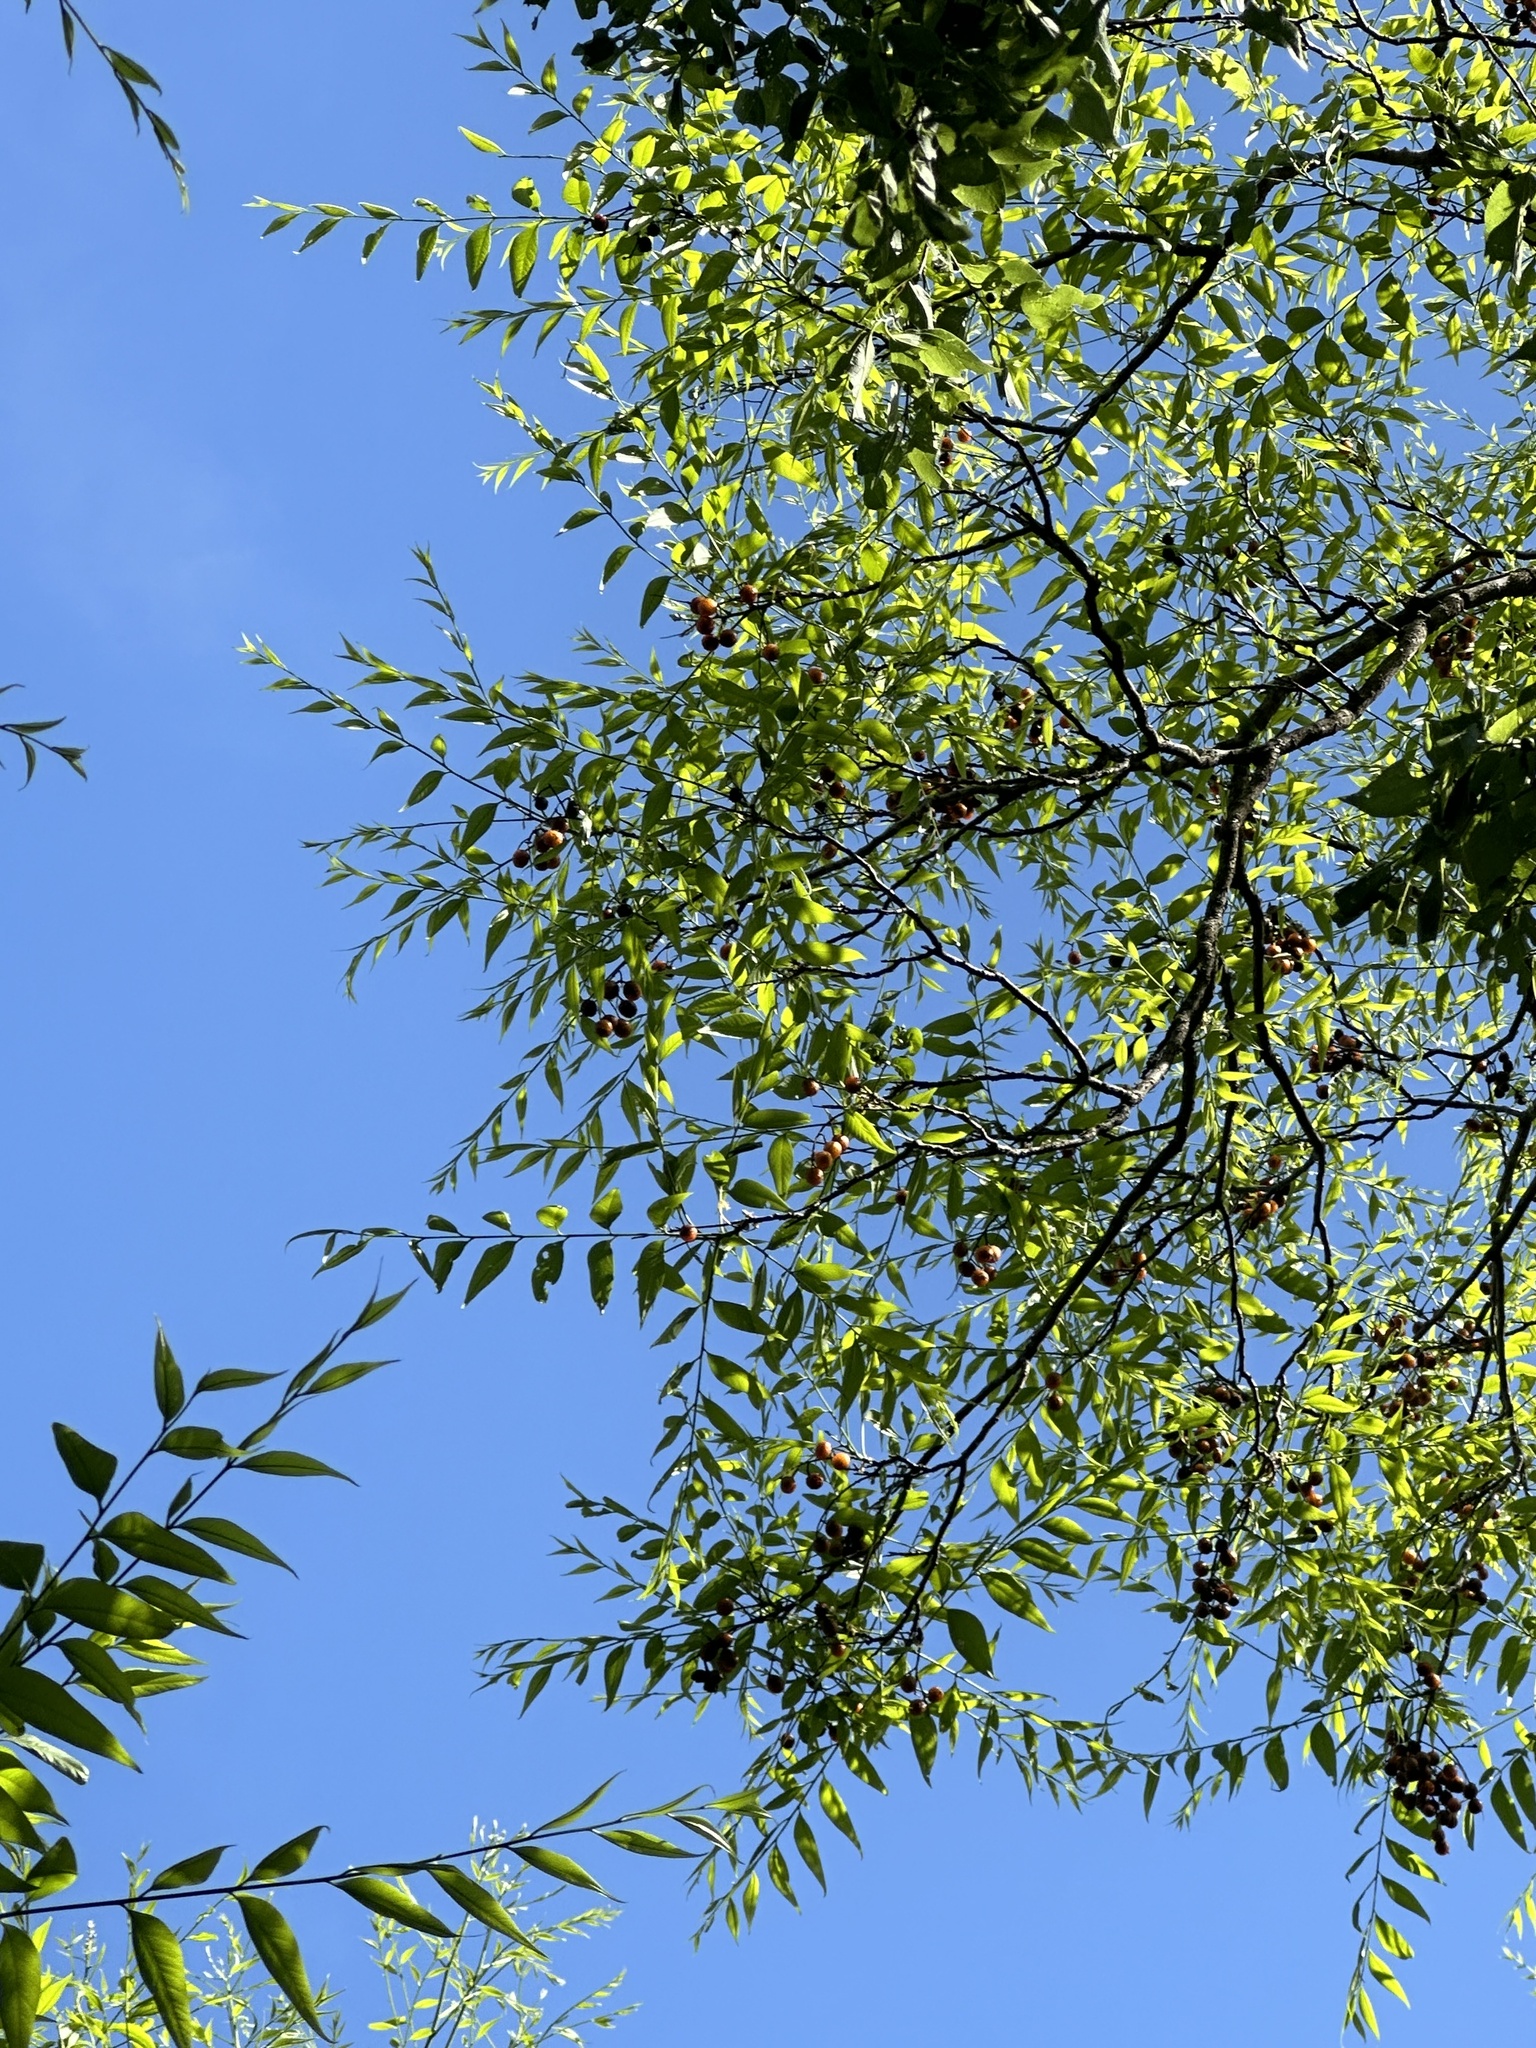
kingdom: Plantae
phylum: Tracheophyta
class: Magnoliopsida
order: Sapindales
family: Sapindaceae
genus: Sapindus
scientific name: Sapindus drummondii
